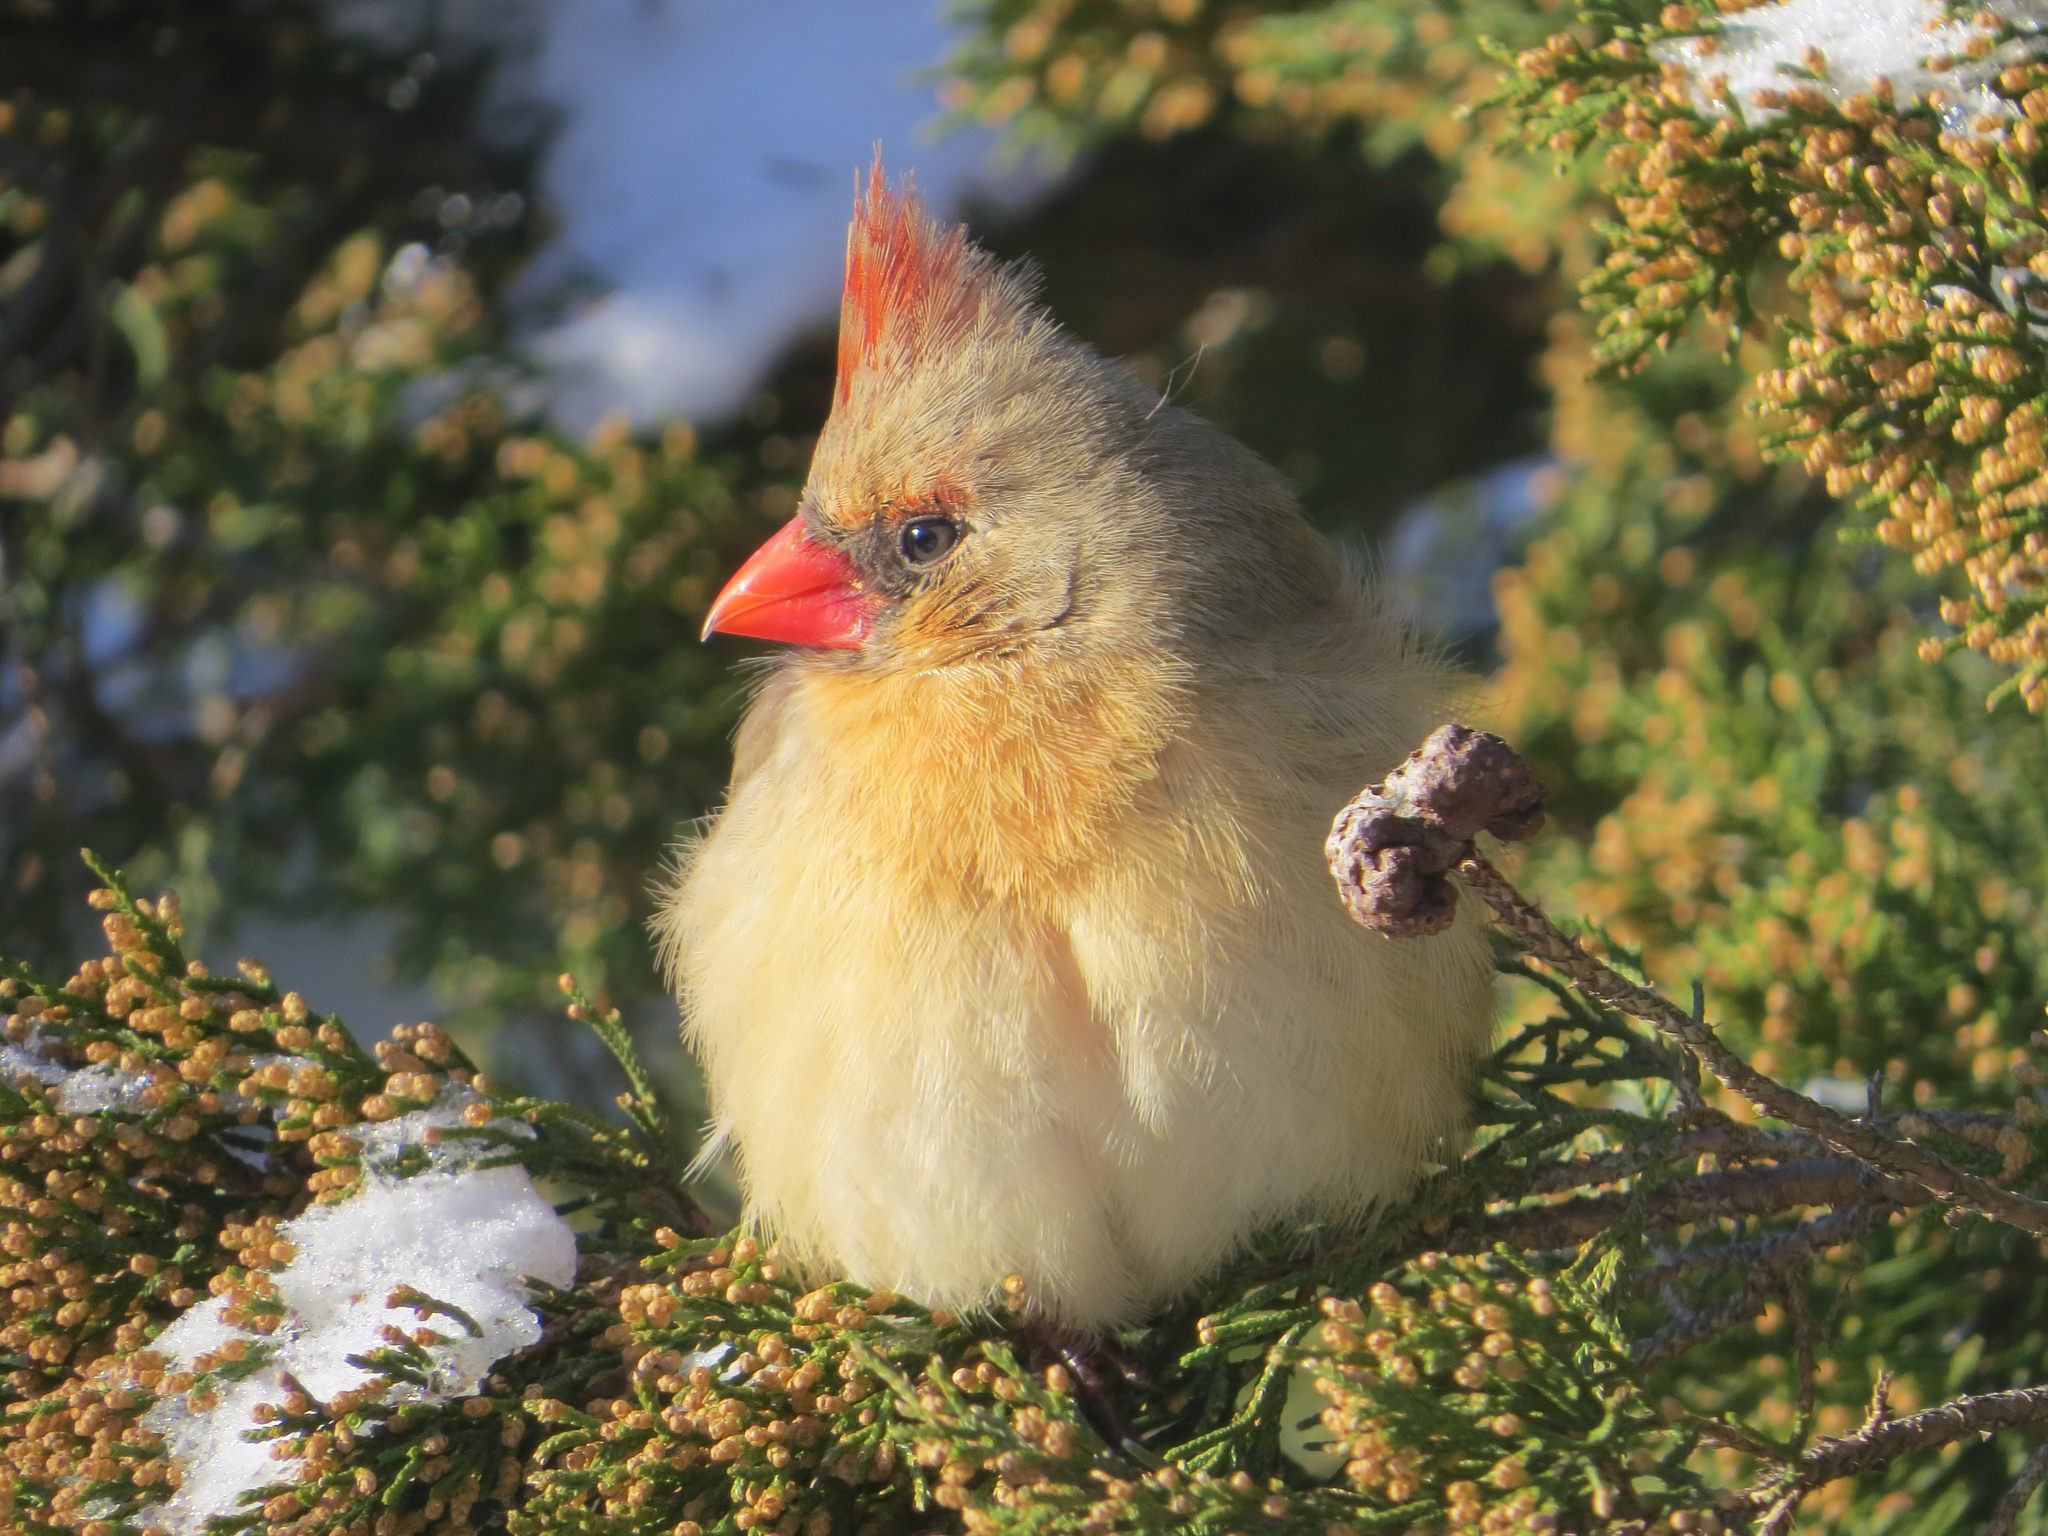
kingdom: Animalia
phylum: Chordata
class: Aves
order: Passeriformes
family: Cardinalidae
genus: Cardinalis
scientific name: Cardinalis cardinalis
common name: Northern cardinal
